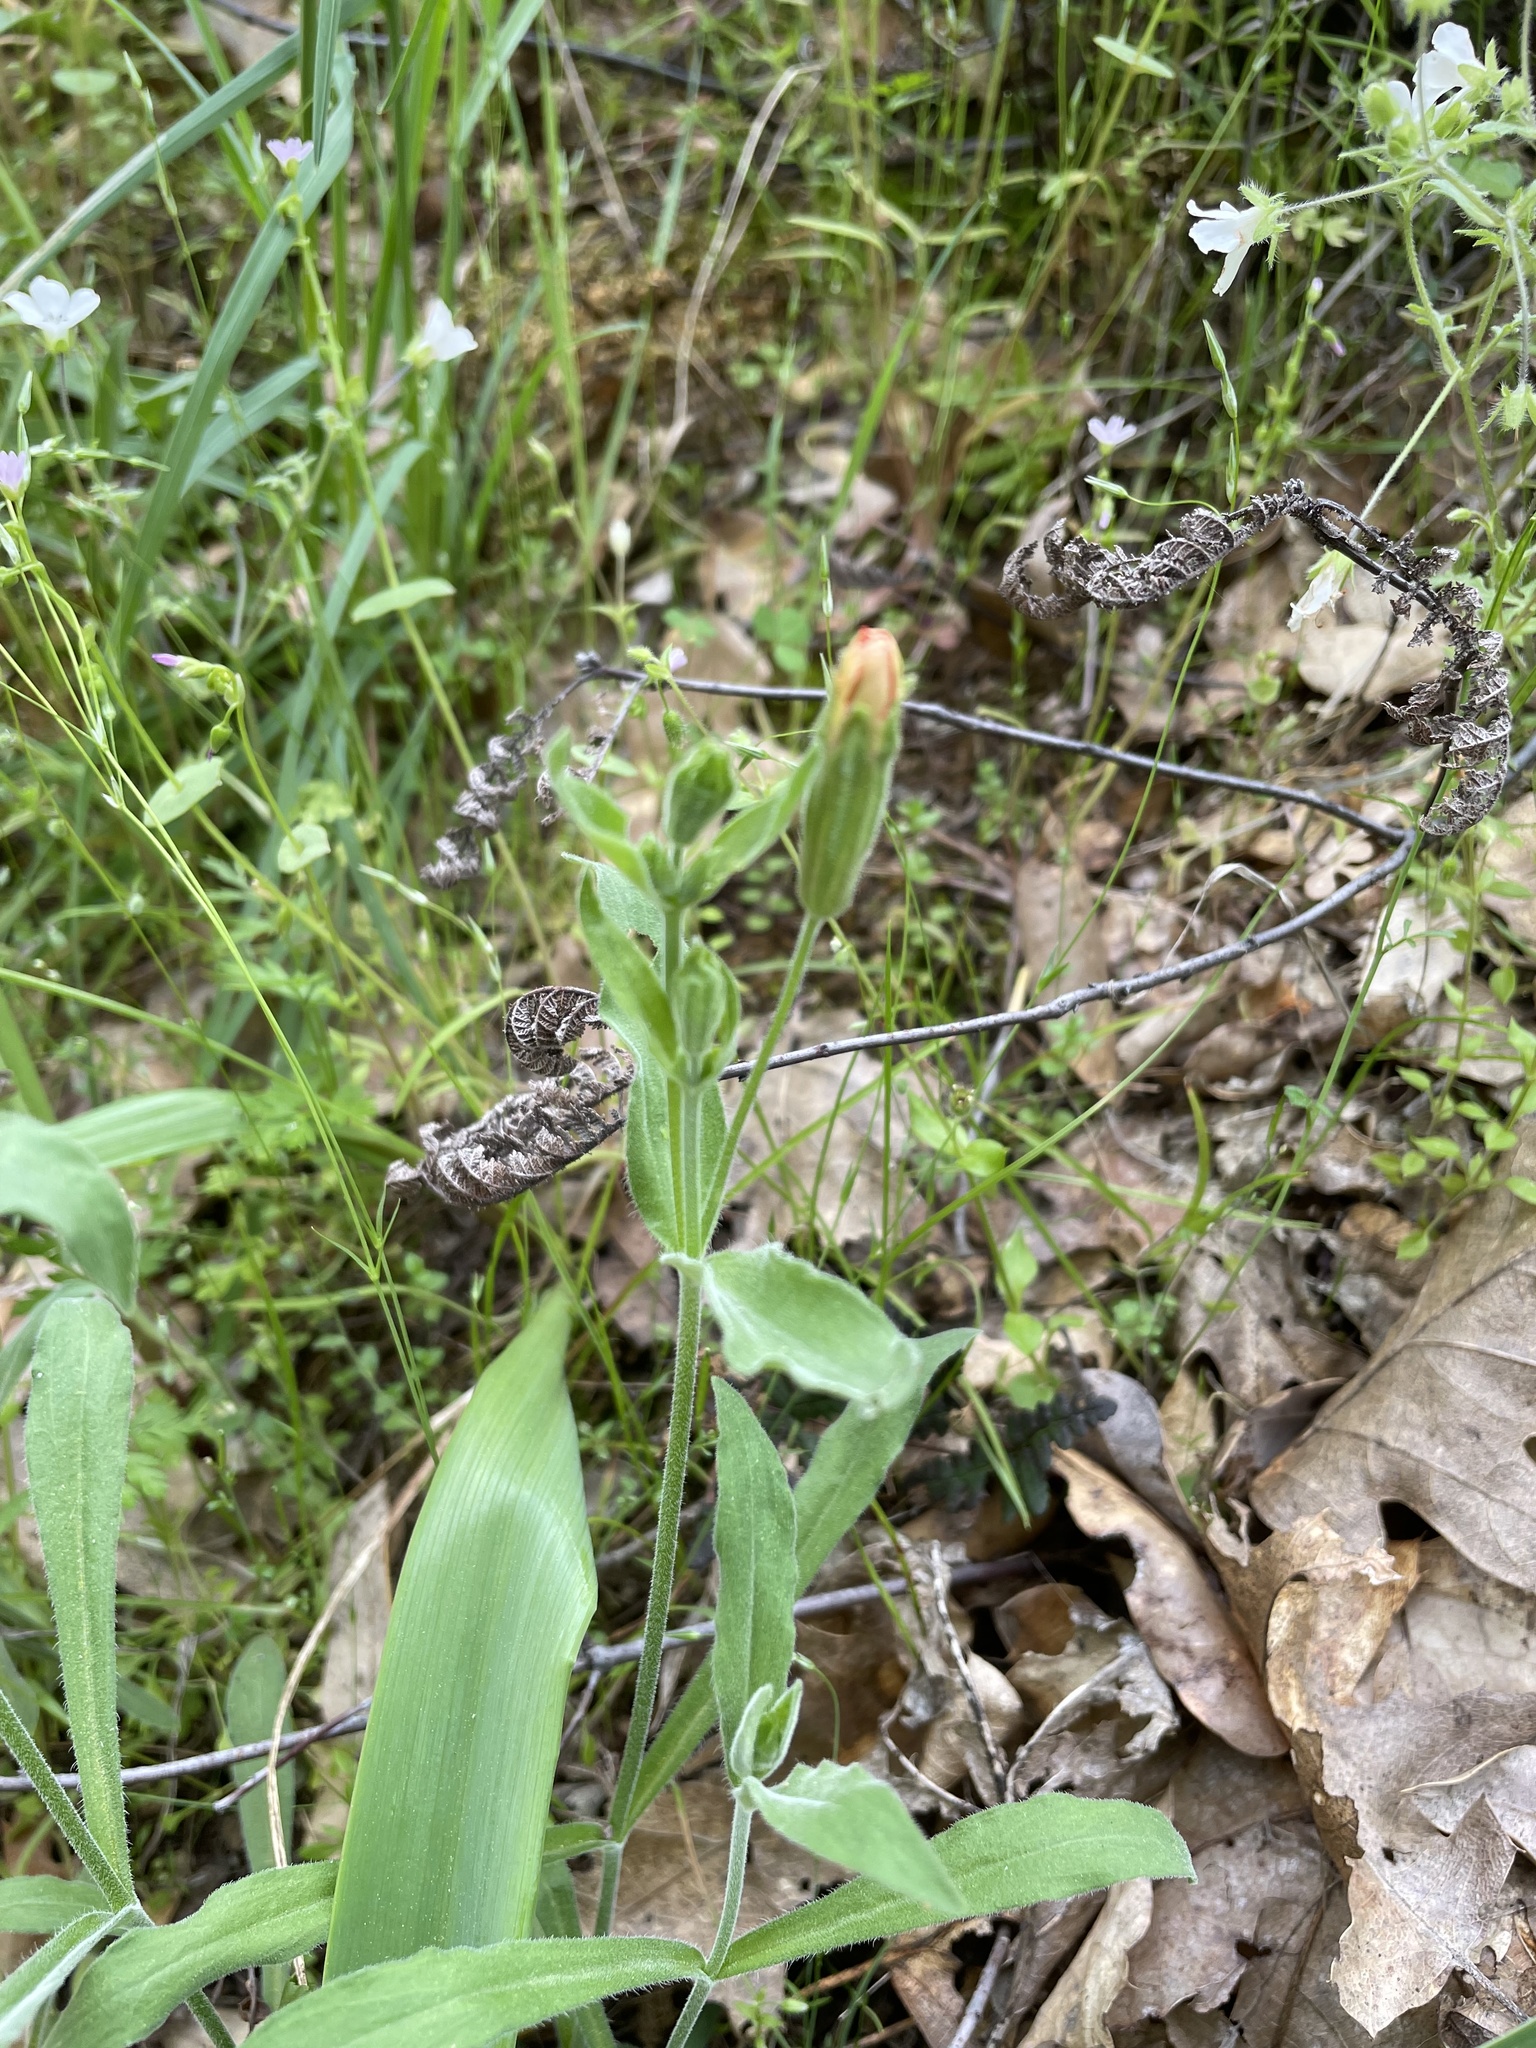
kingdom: Plantae
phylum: Tracheophyta
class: Magnoliopsida
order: Caryophyllales
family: Caryophyllaceae
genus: Silene
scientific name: Silene laciniata
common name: Indian-pink
